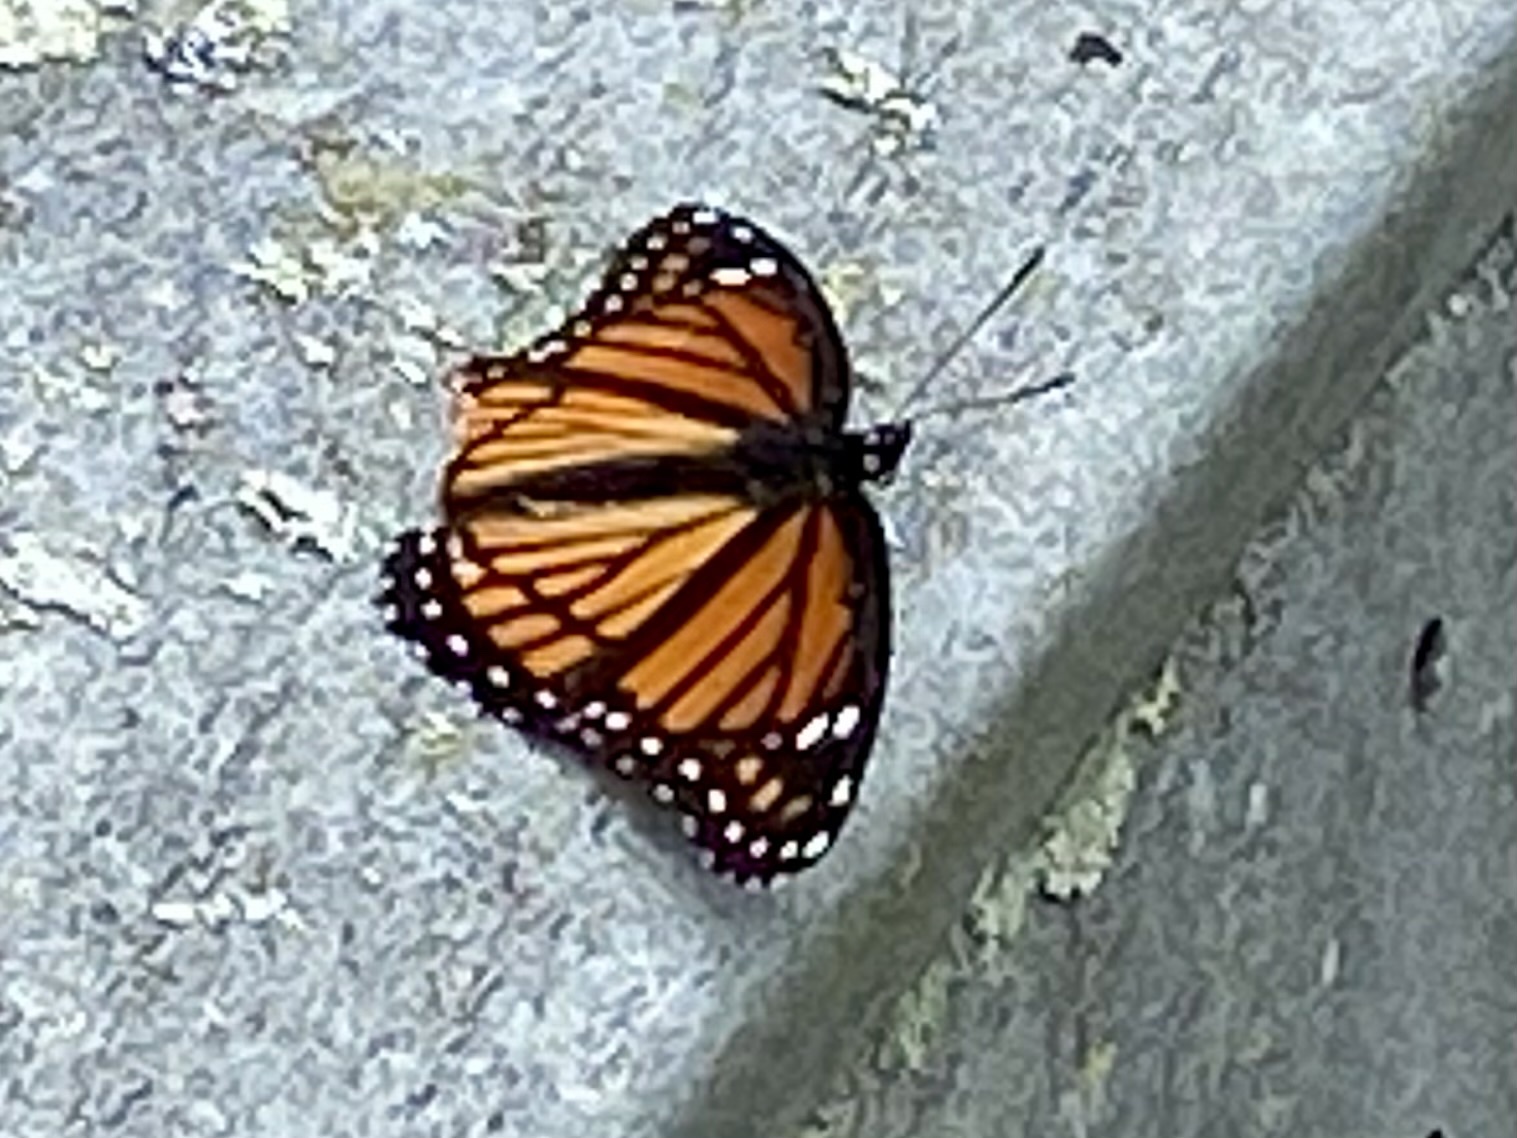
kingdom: Animalia
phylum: Arthropoda
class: Insecta
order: Lepidoptera
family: Nymphalidae
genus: Limenitis
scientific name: Limenitis archippus
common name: Viceroy
